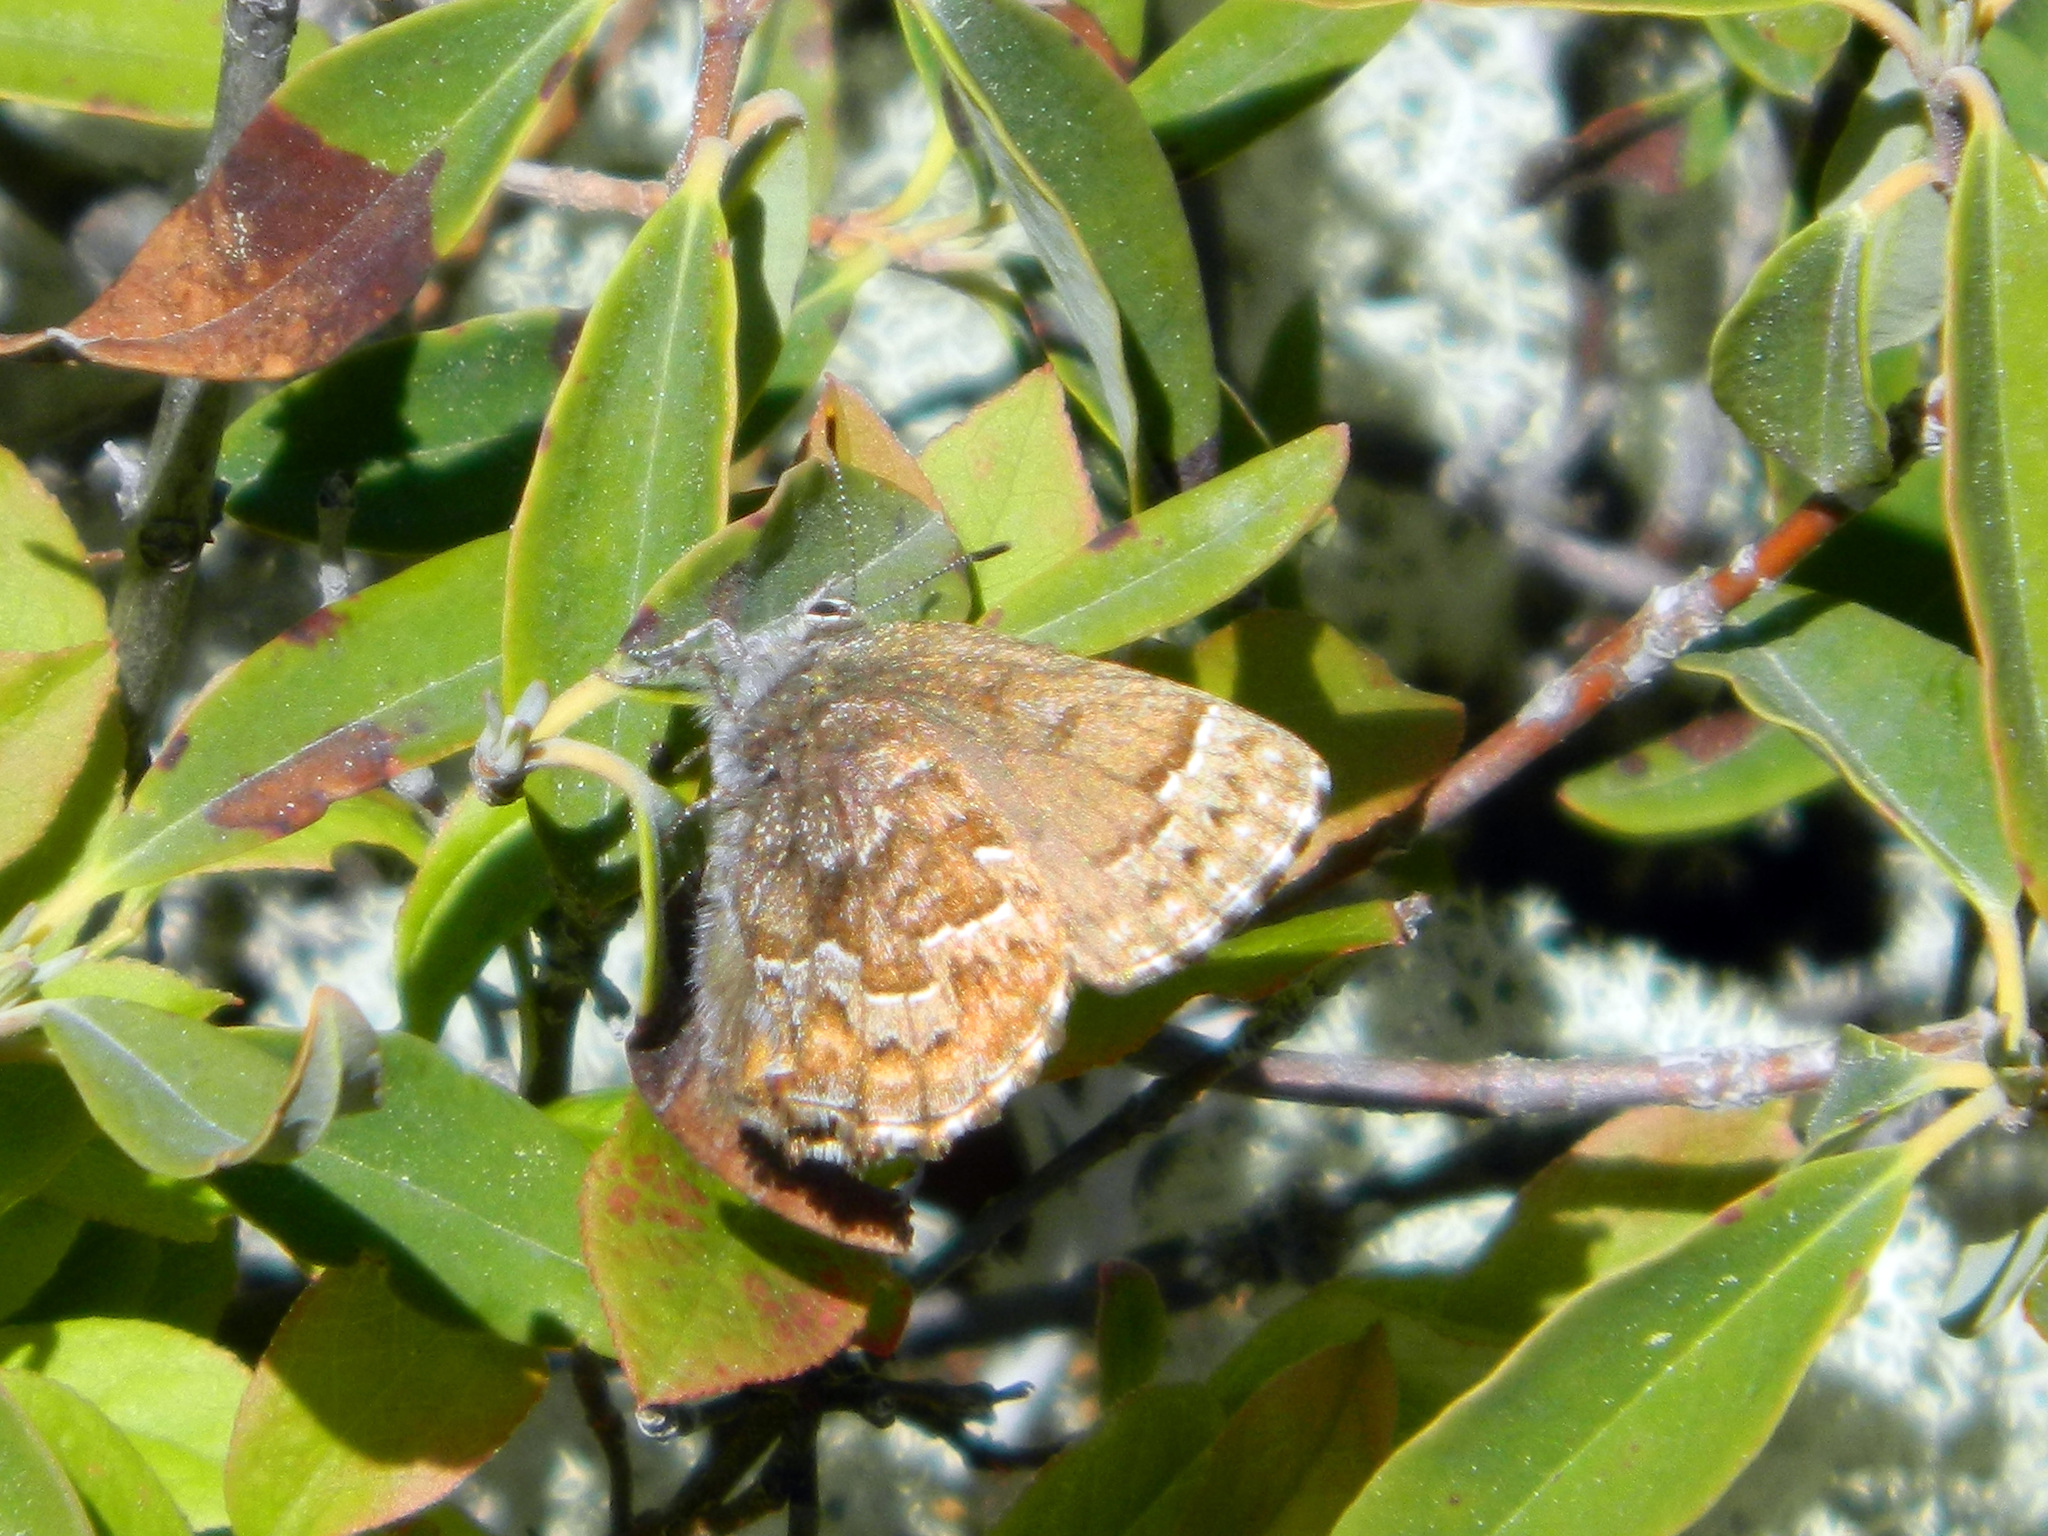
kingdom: Animalia
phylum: Arthropoda
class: Insecta
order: Lepidoptera
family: Lycaenidae
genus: Incisalia
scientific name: Incisalia niphon
